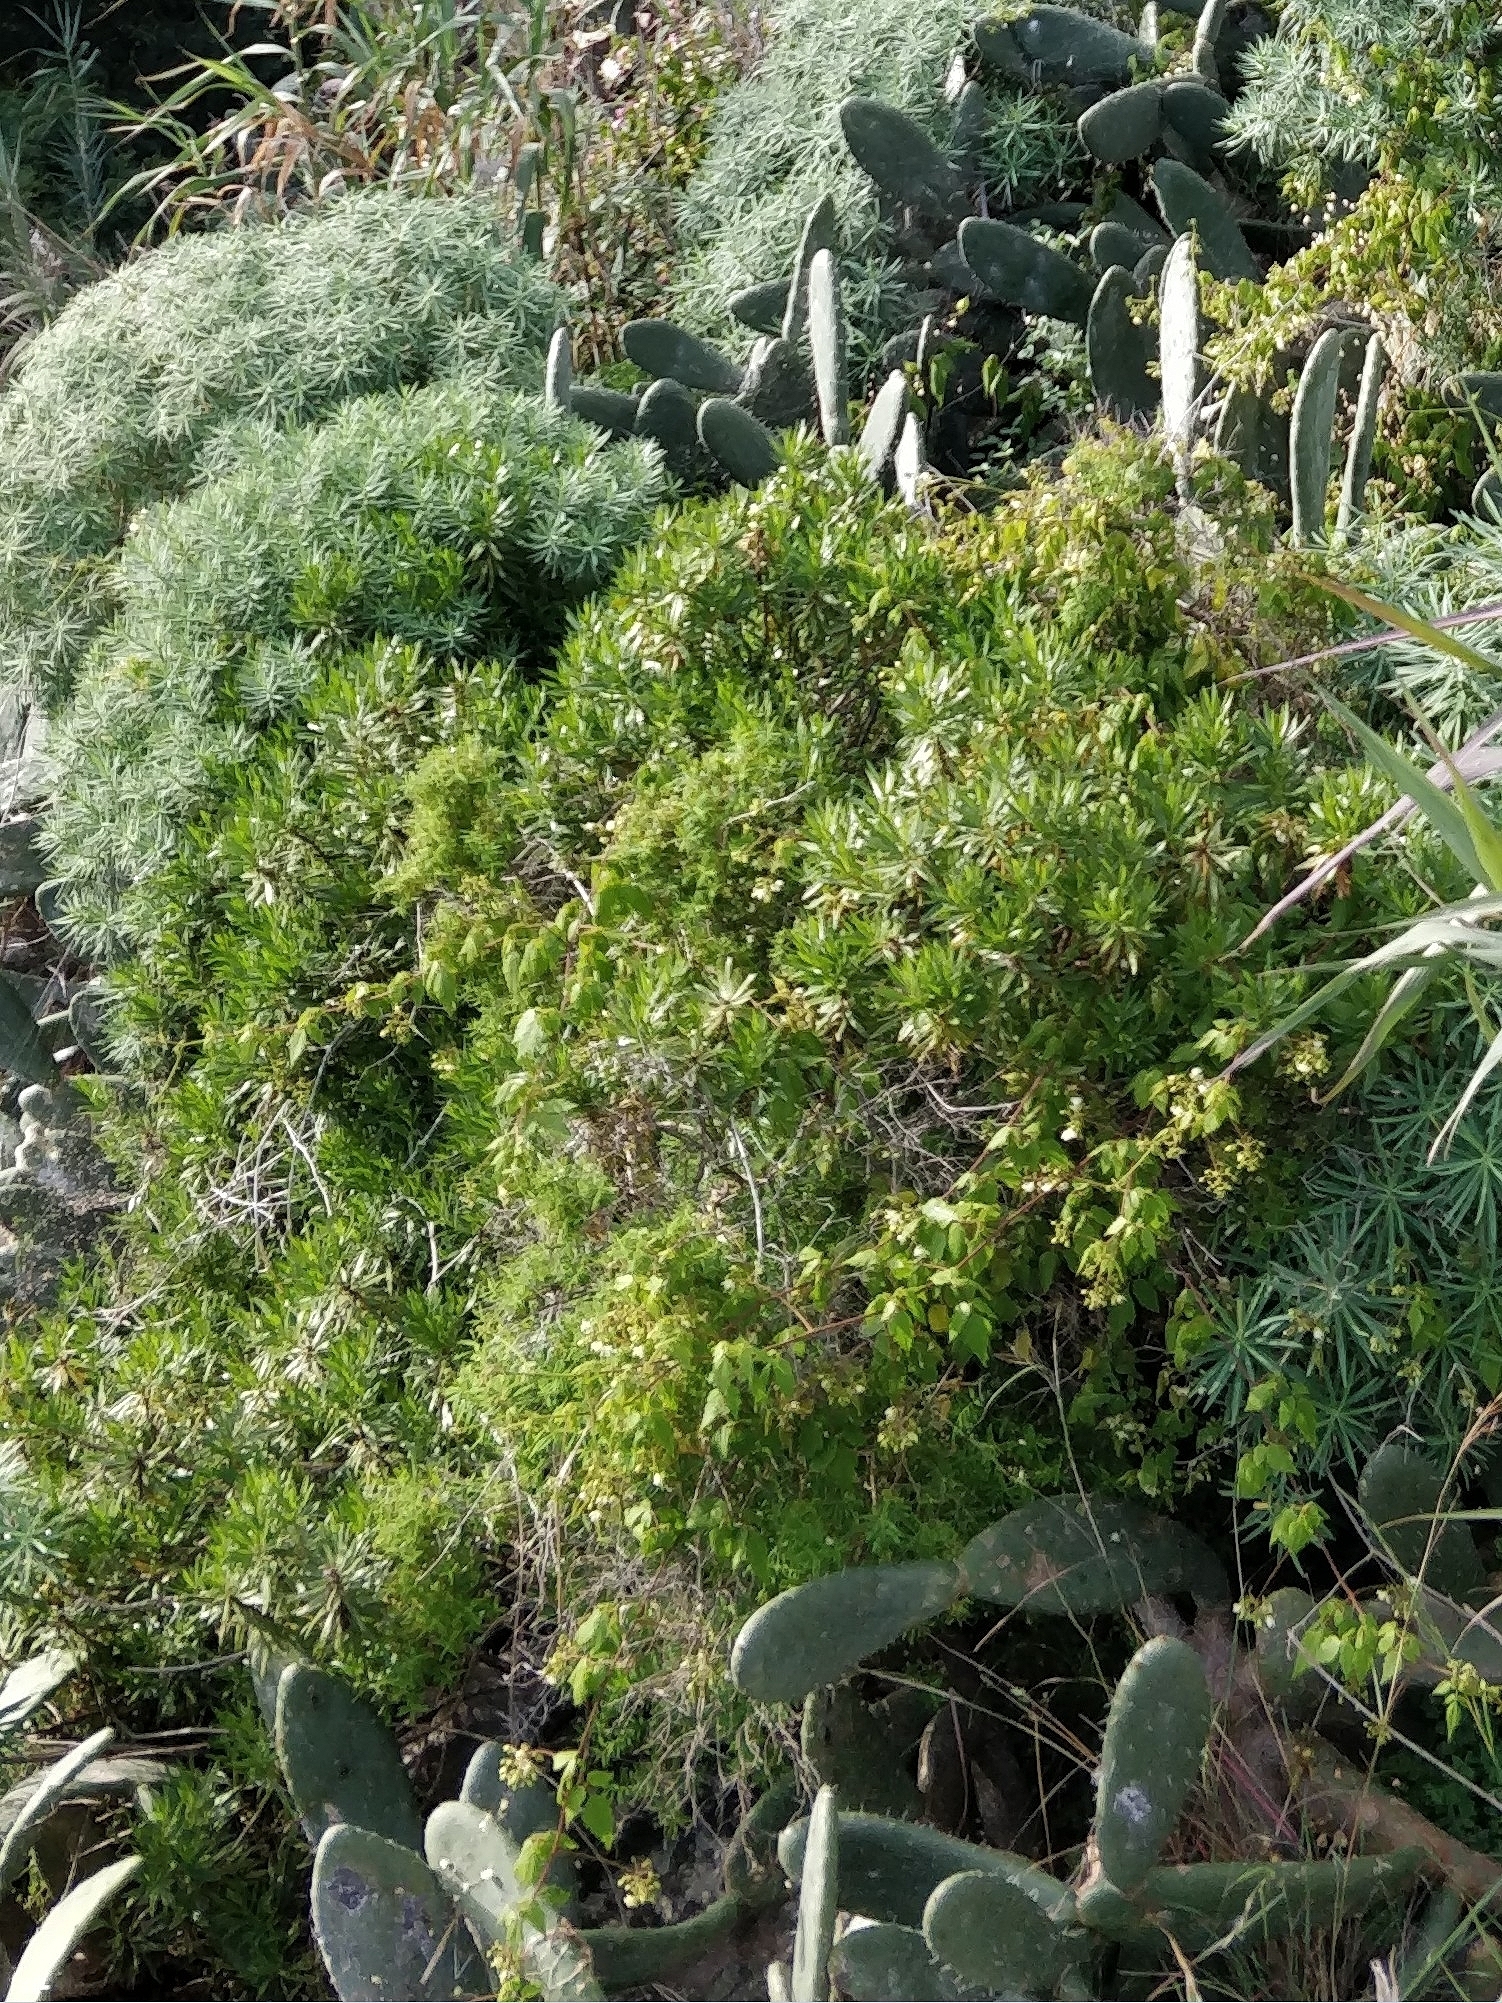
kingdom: Plantae
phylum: Tracheophyta
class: Magnoliopsida
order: Lamiales
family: Plantaginaceae
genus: Globularia
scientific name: Globularia salicina
